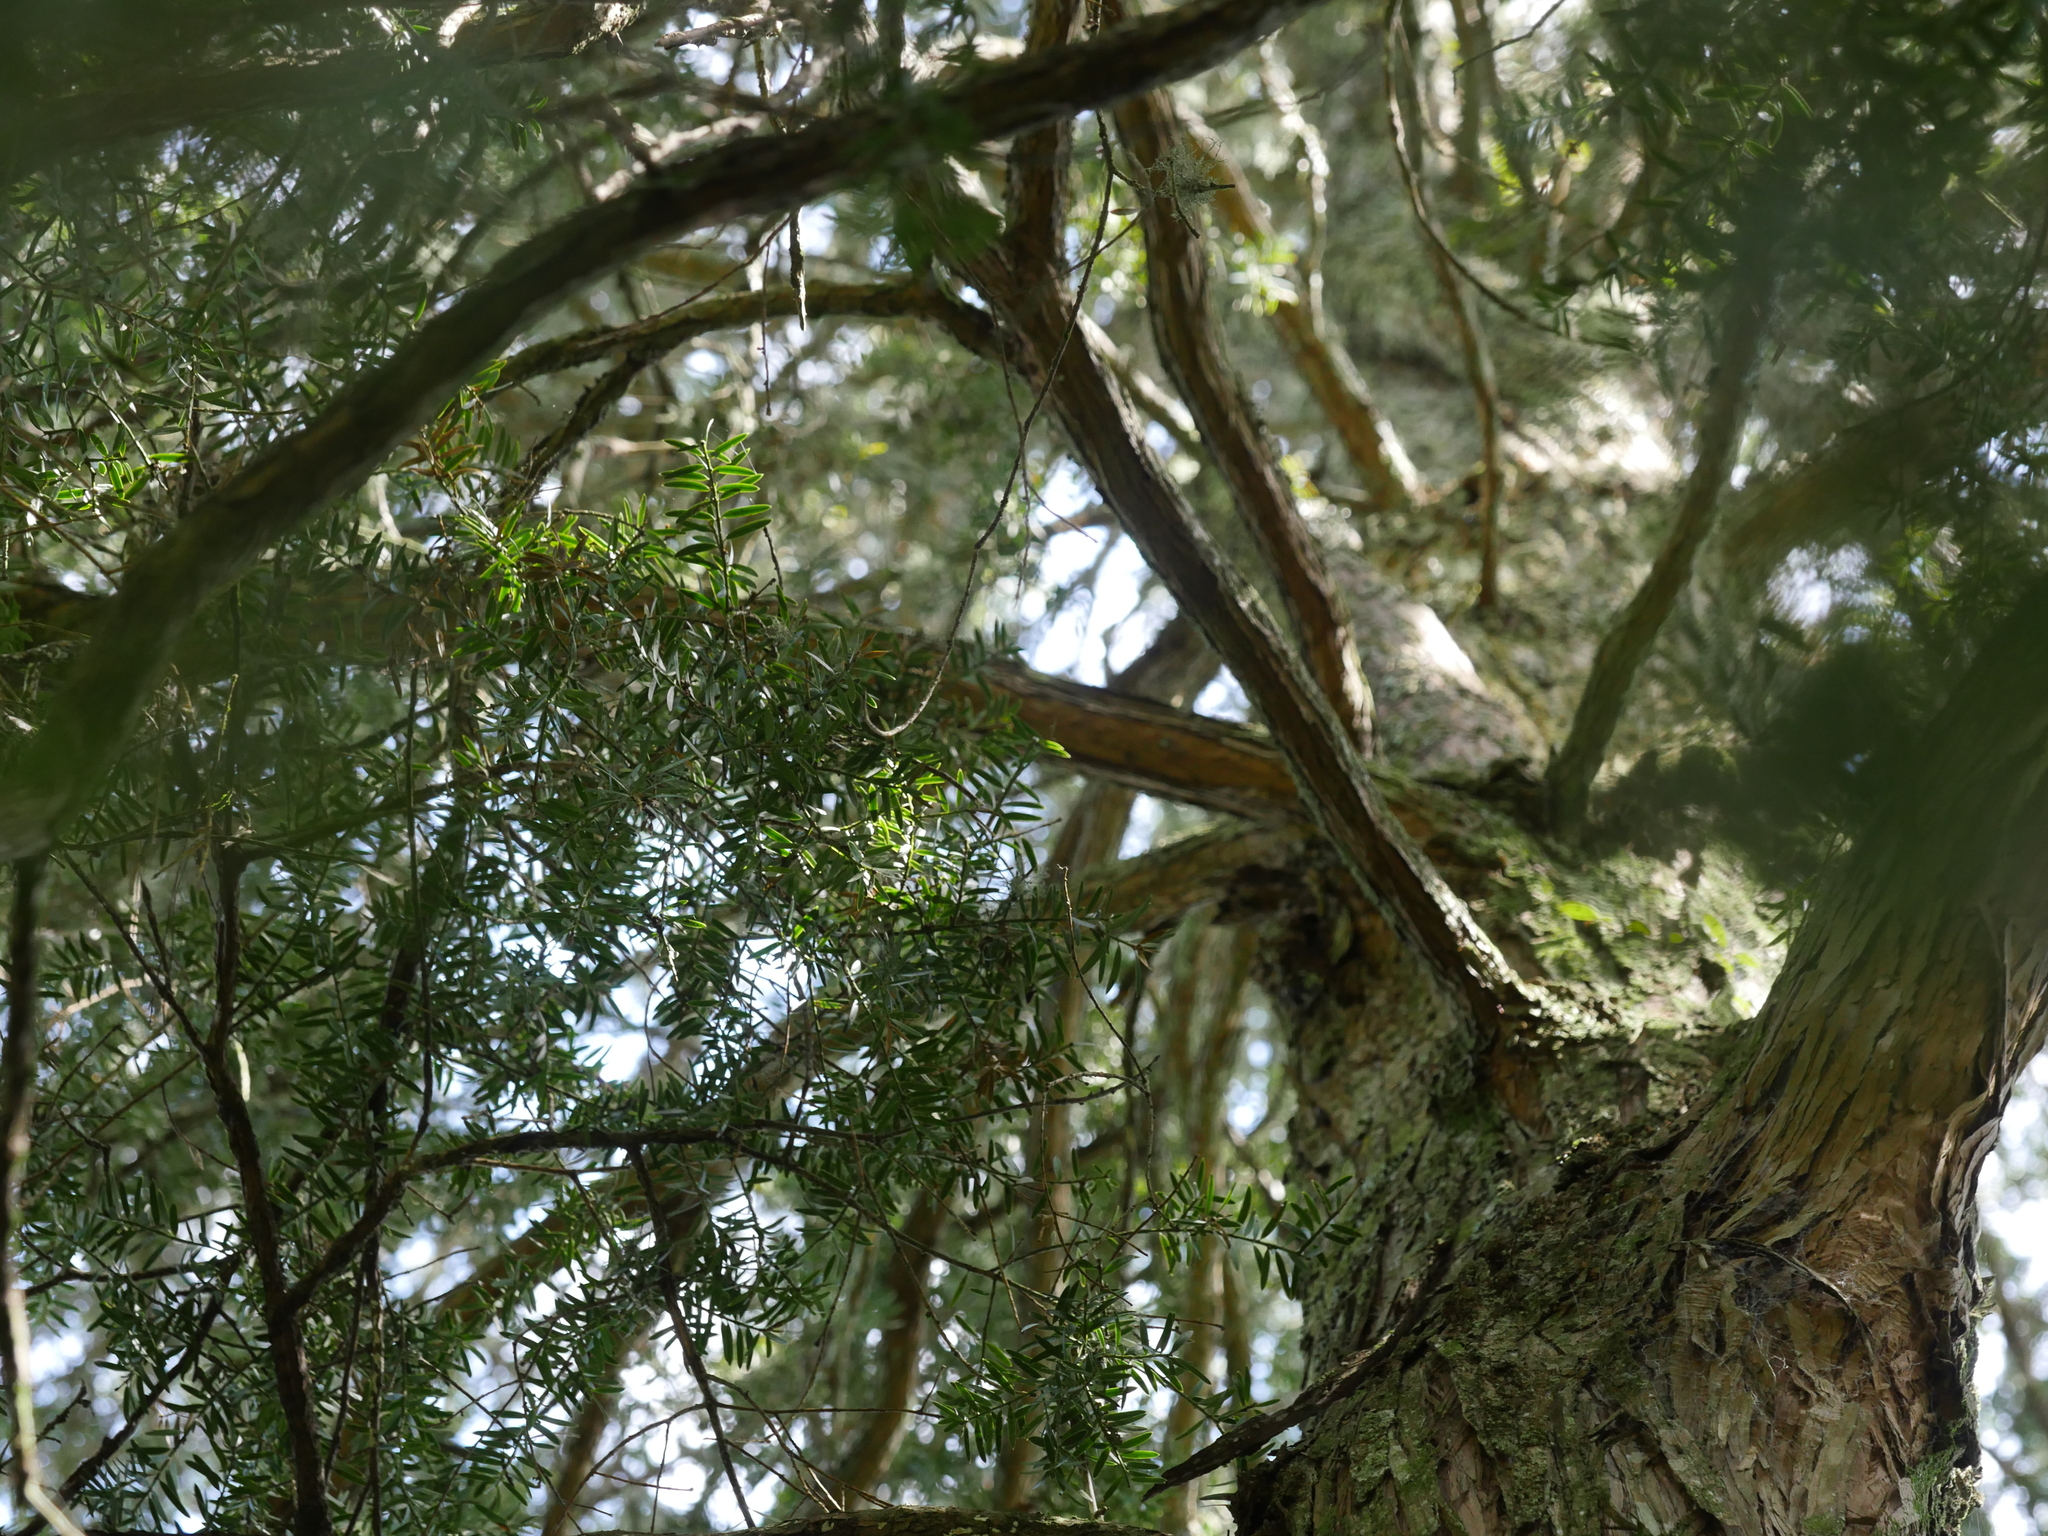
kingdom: Plantae
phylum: Tracheophyta
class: Pinopsida
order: Pinales
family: Podocarpaceae
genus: Podocarpus
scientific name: Podocarpus totara
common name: Totara
